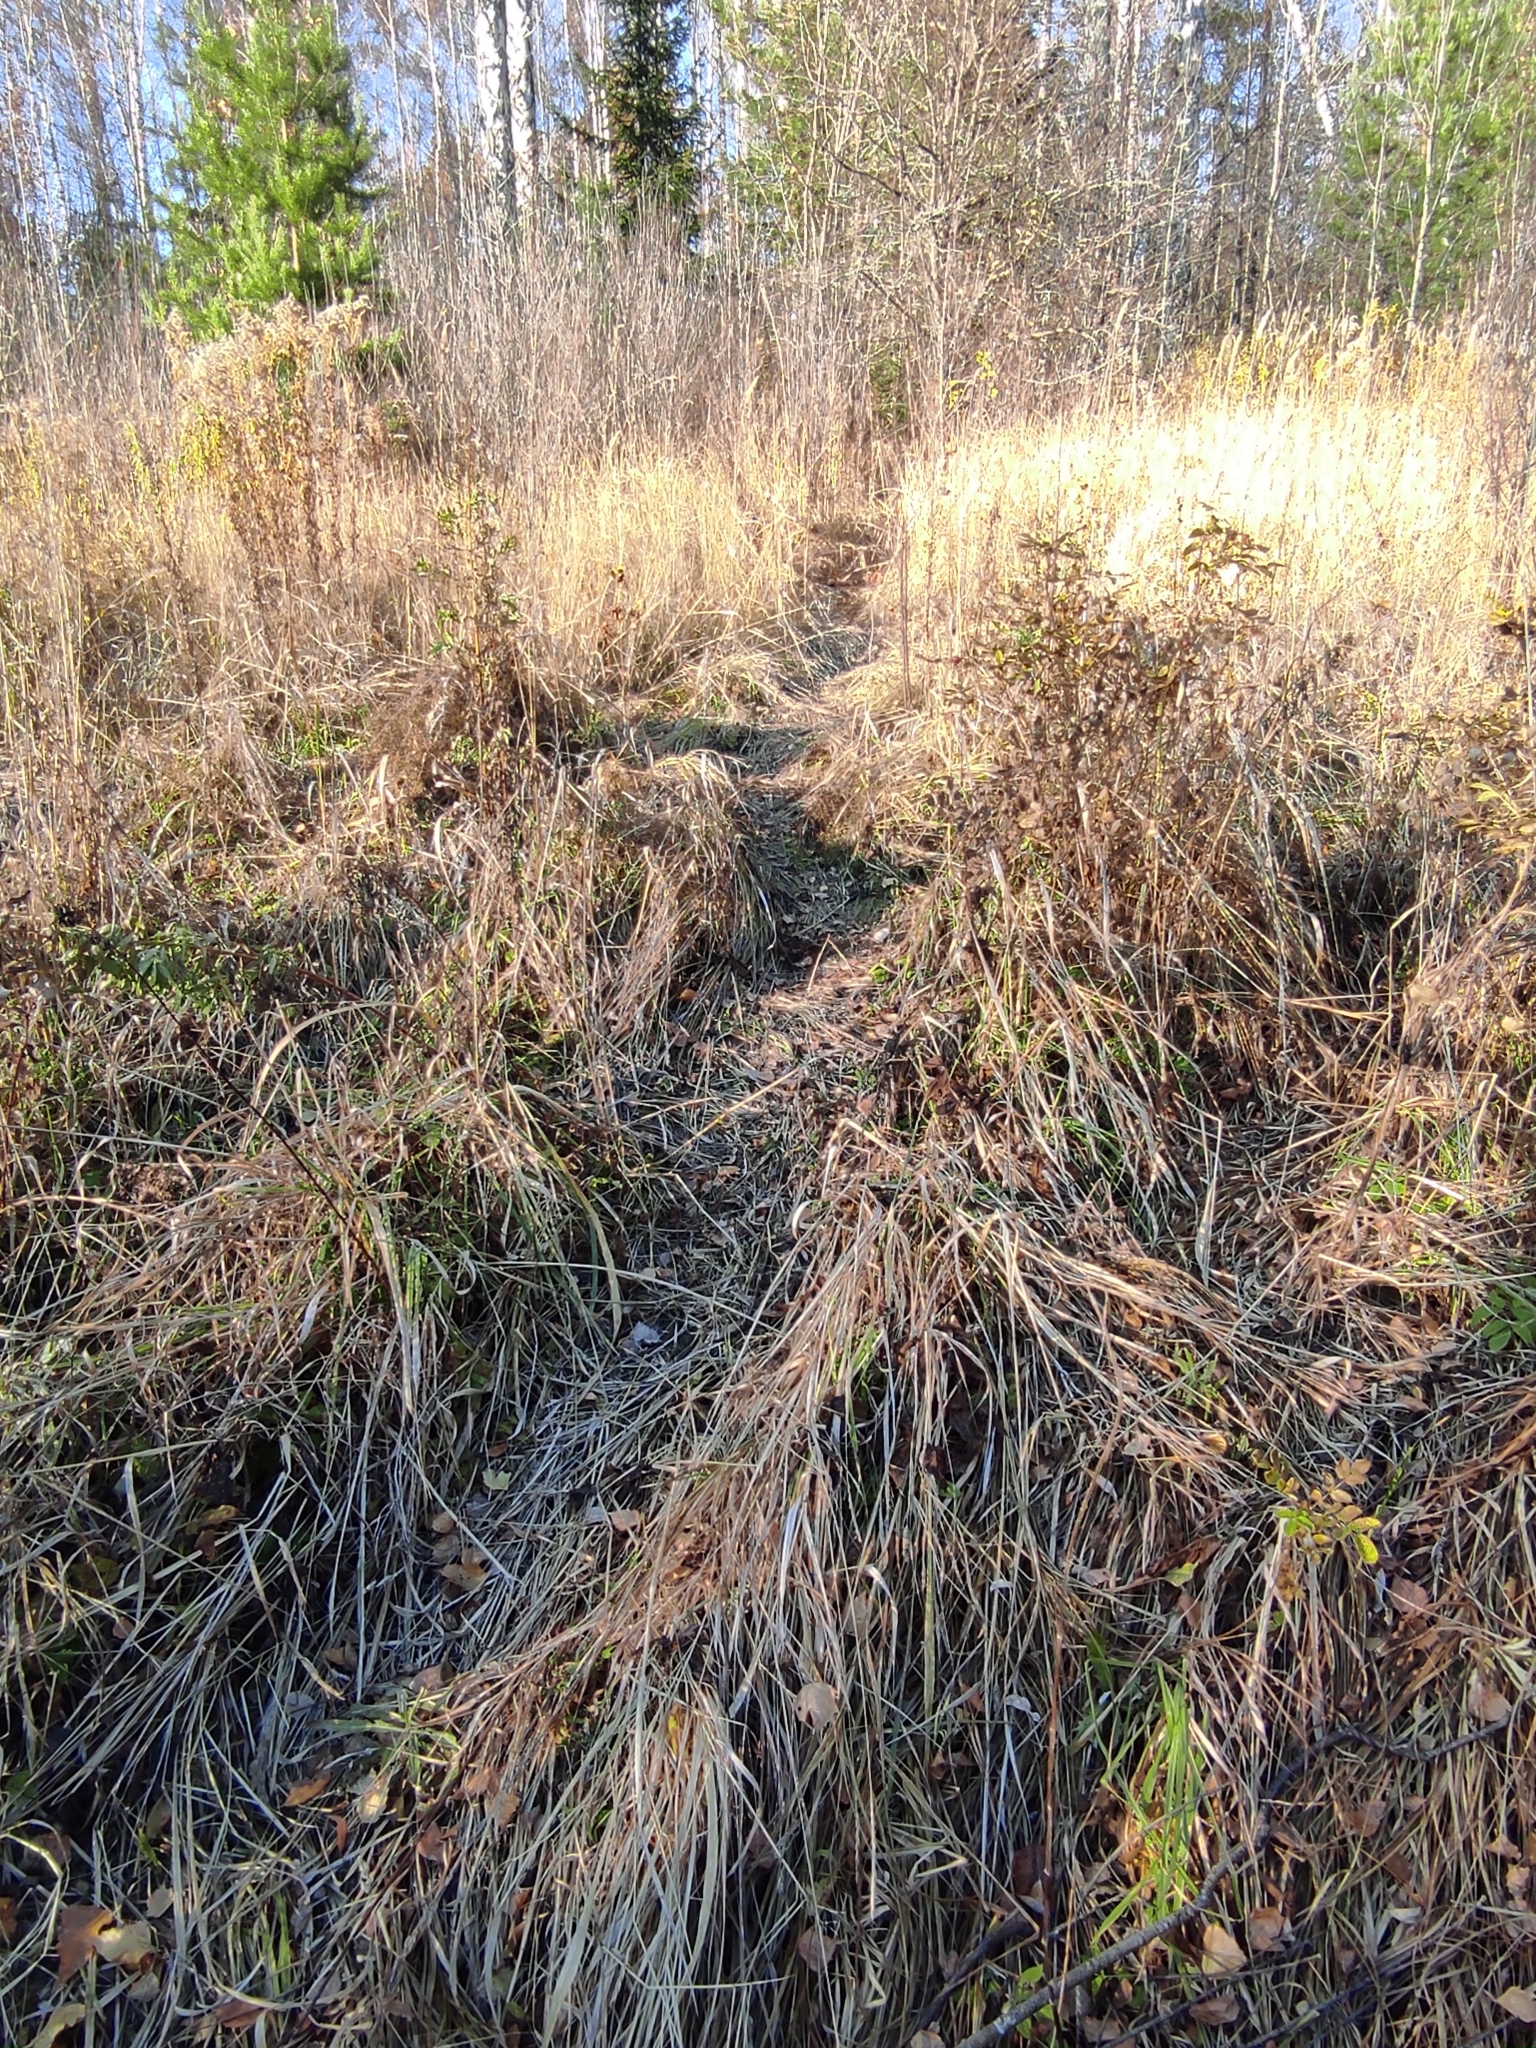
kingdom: Animalia
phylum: Chordata
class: Mammalia
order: Rodentia
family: Castoridae
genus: Castor
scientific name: Castor fiber
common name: Eurasian beaver
